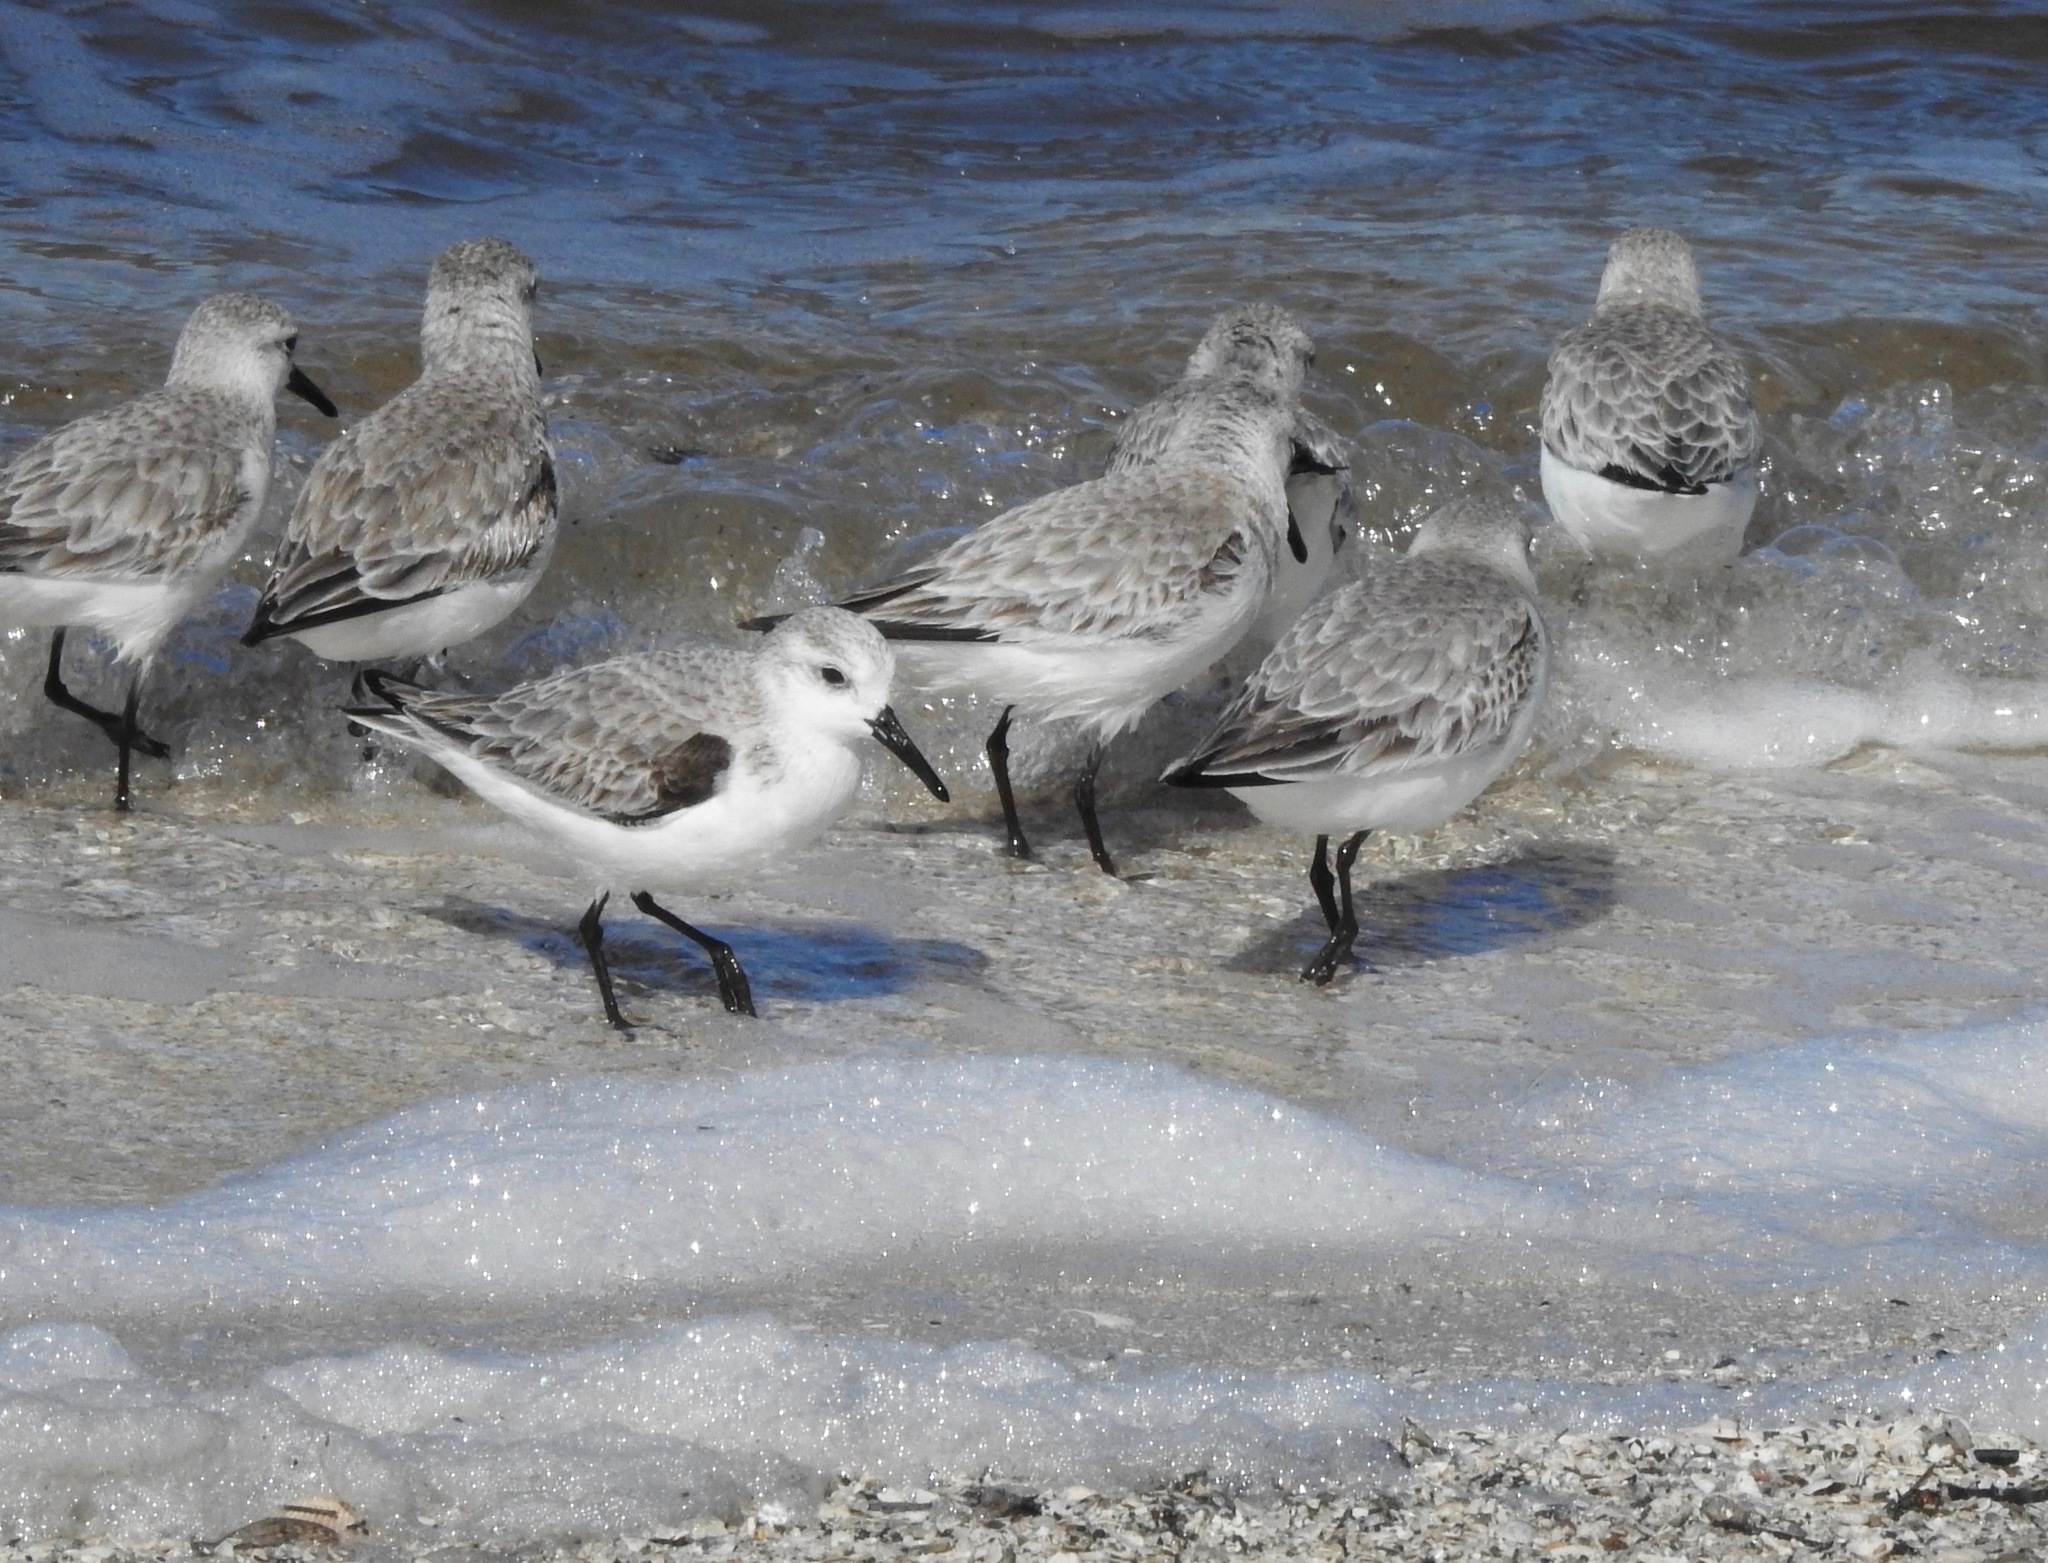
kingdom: Animalia
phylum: Chordata
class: Aves
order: Charadriiformes
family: Scolopacidae
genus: Calidris
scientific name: Calidris alba
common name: Sanderling
